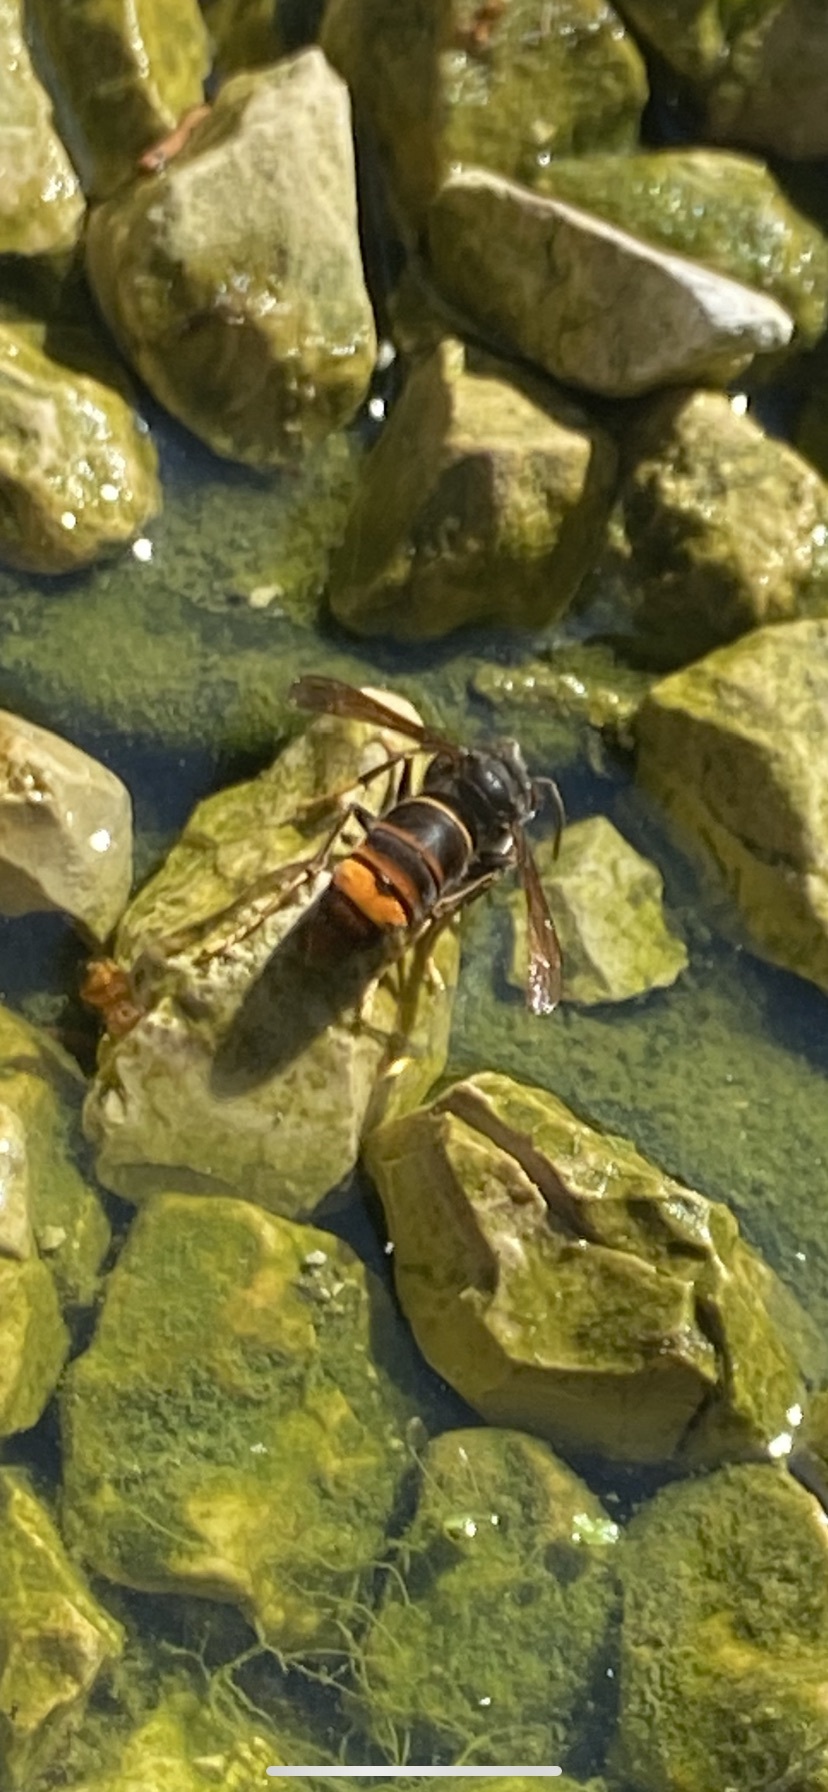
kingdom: Animalia
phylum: Arthropoda
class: Insecta
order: Hymenoptera
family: Vespidae
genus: Vespa
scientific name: Vespa velutina
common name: Asian hornet
